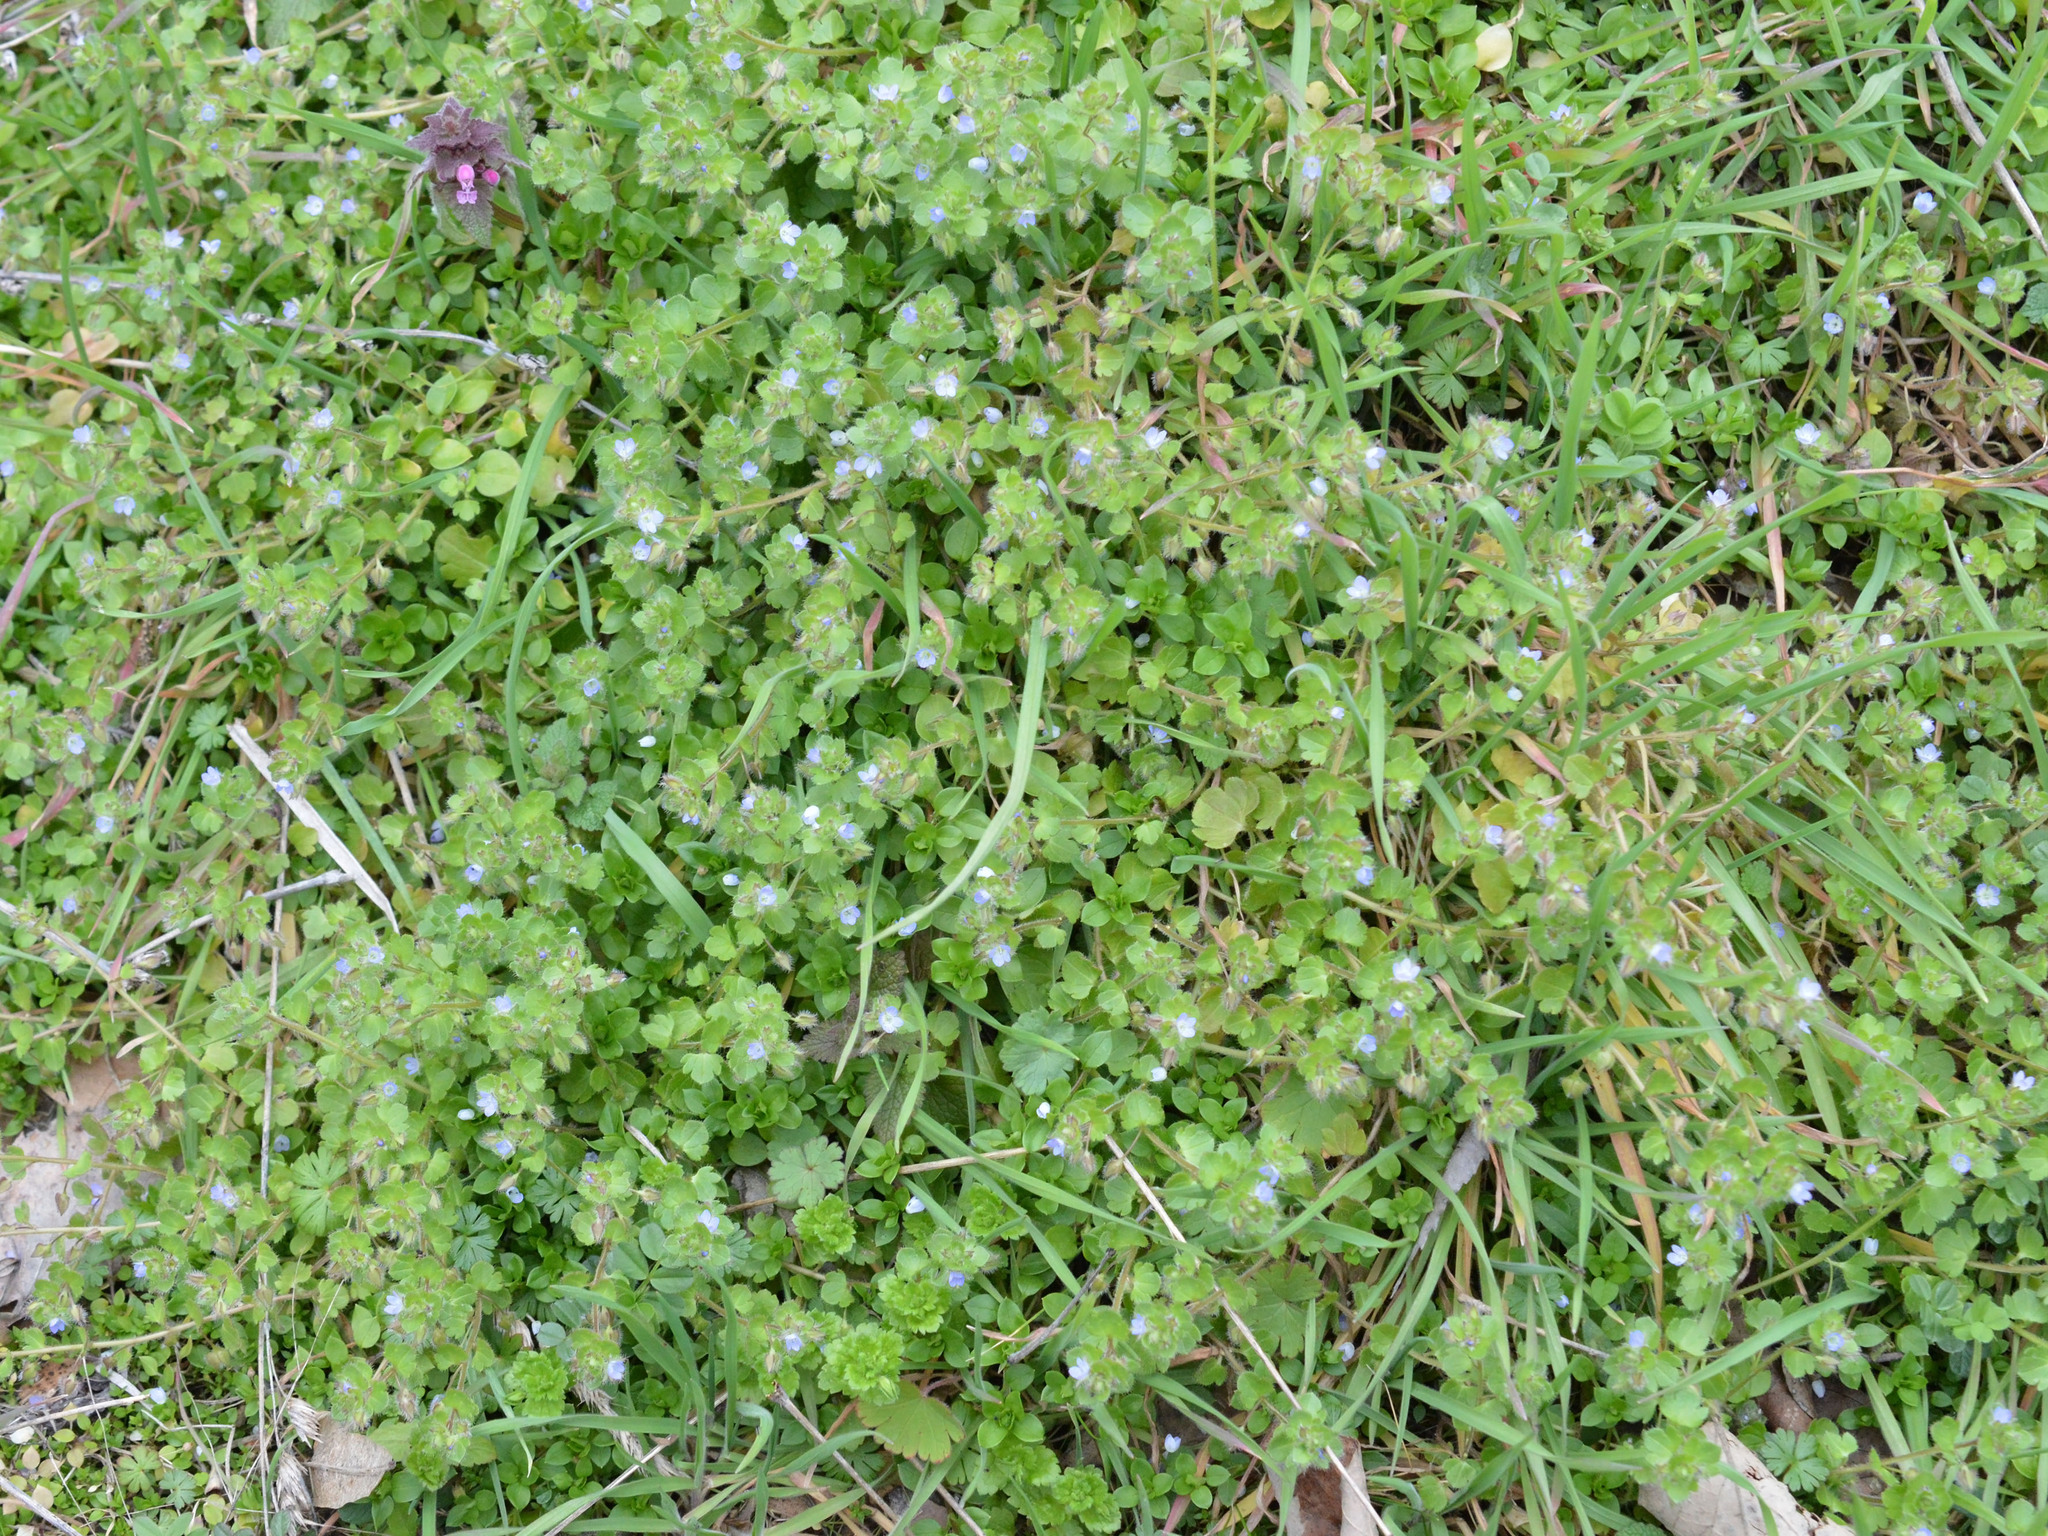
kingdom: Plantae
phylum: Tracheophyta
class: Magnoliopsida
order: Lamiales
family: Plantaginaceae
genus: Veronica
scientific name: Veronica hederifolia
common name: Ivy-leaved speedwell
